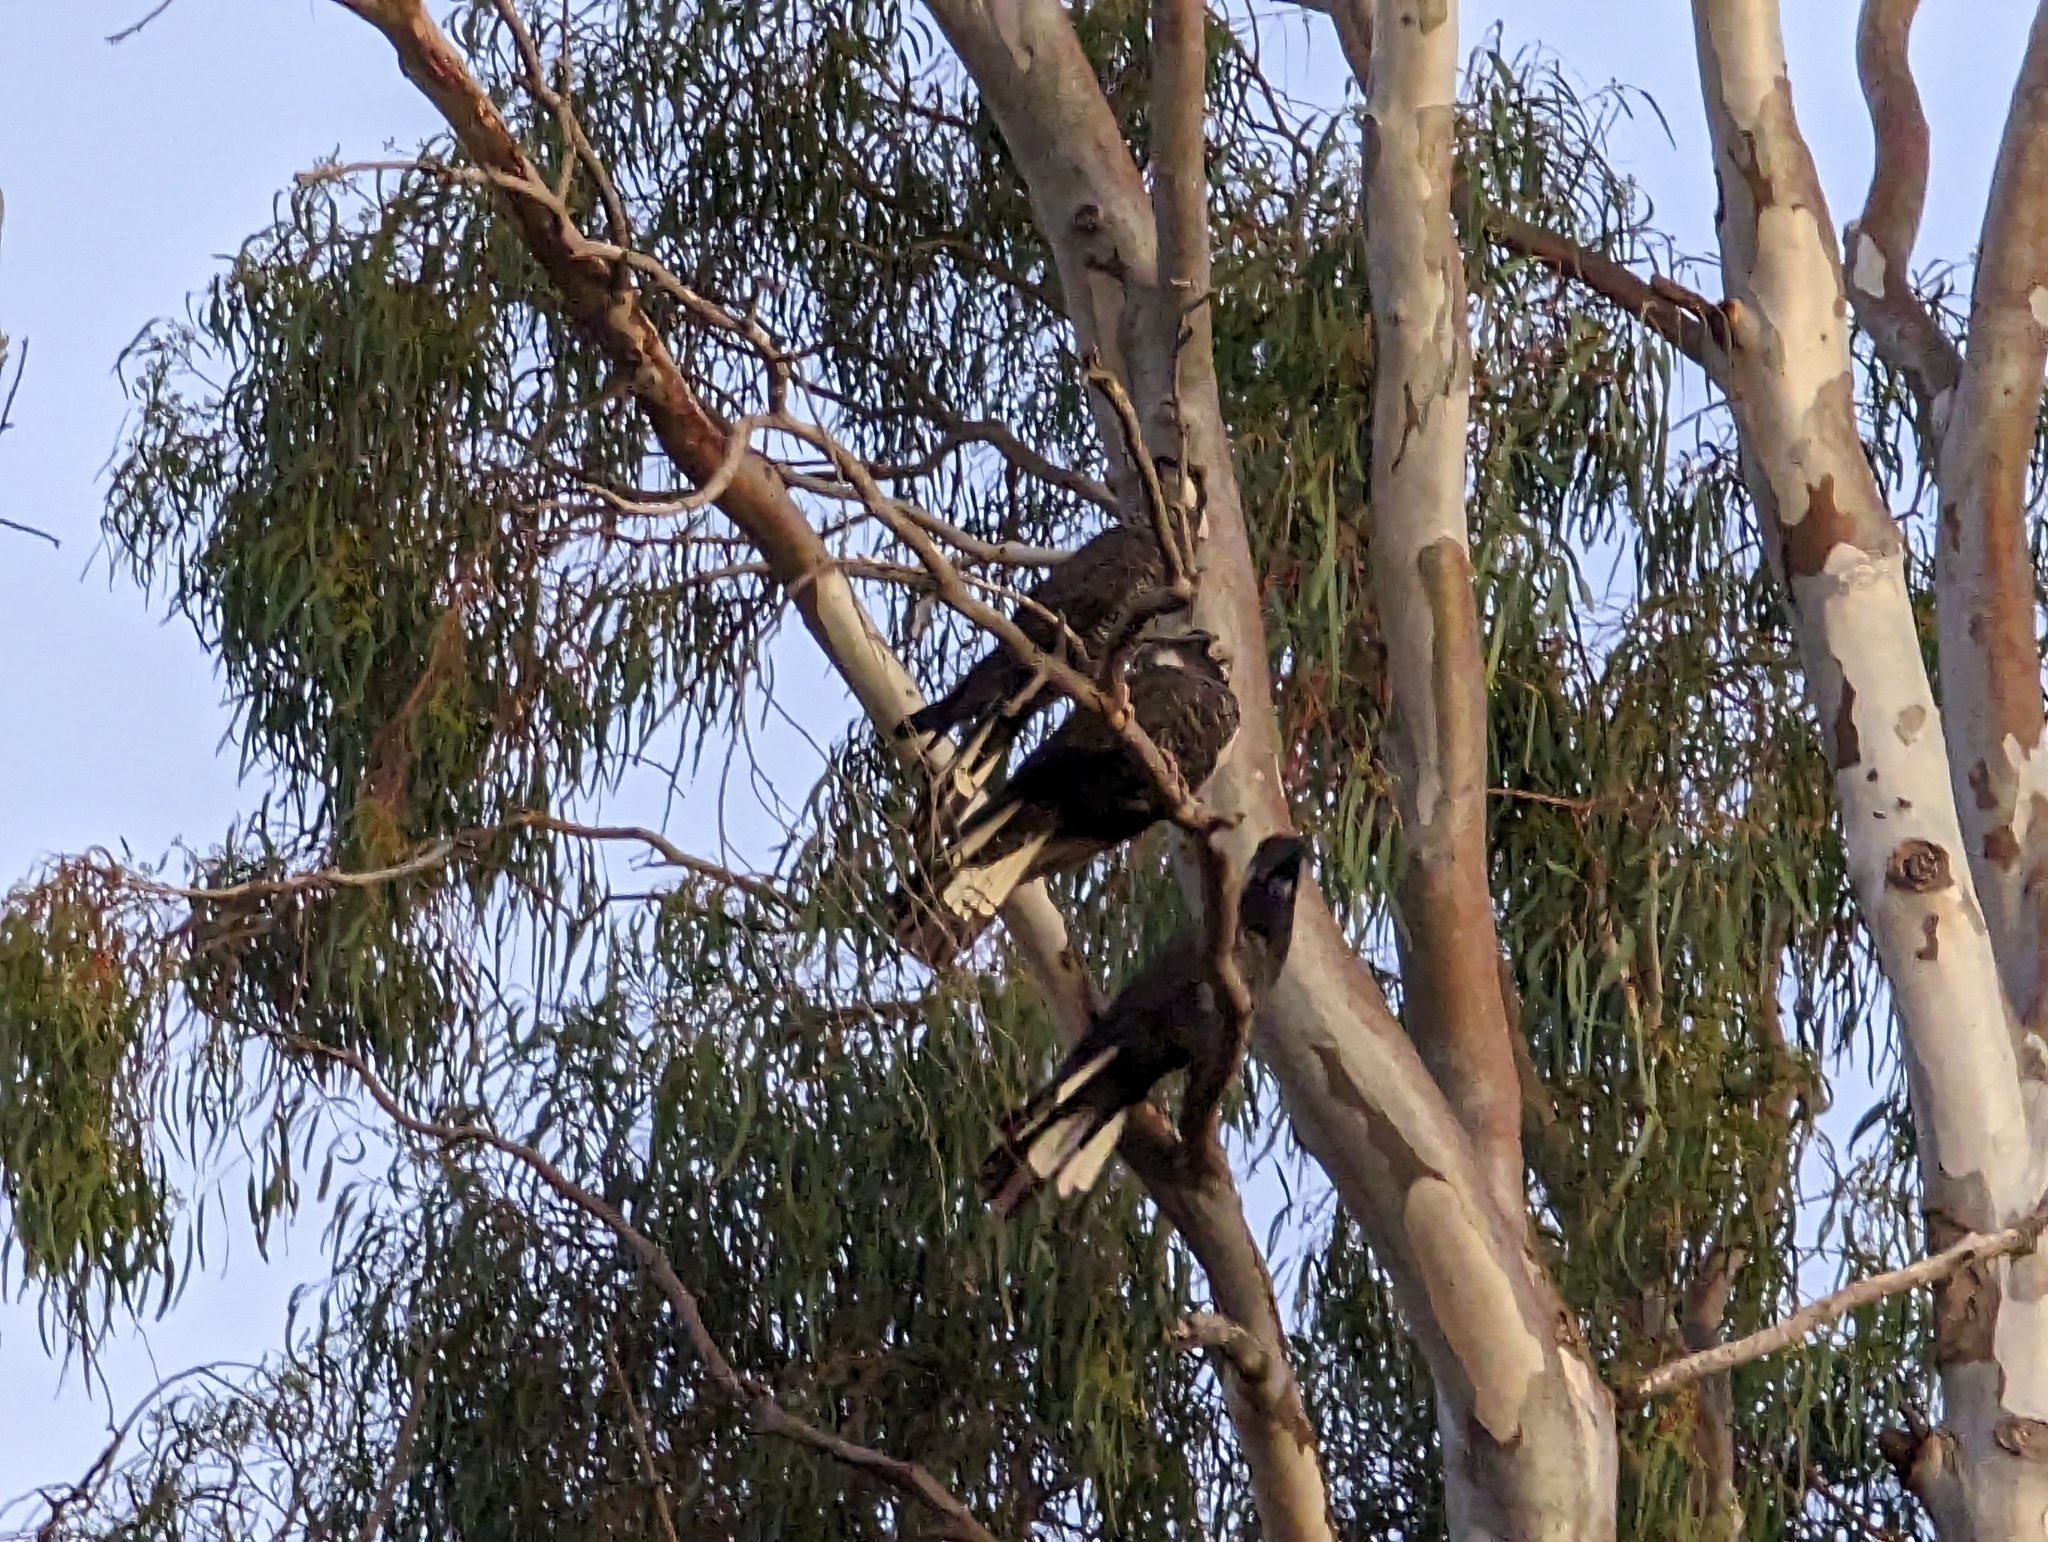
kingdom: Animalia
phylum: Chordata
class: Aves
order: Psittaciformes
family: Cacatuidae
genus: Zanda
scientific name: Zanda latirostris
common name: Short-billed black-cockatoo
